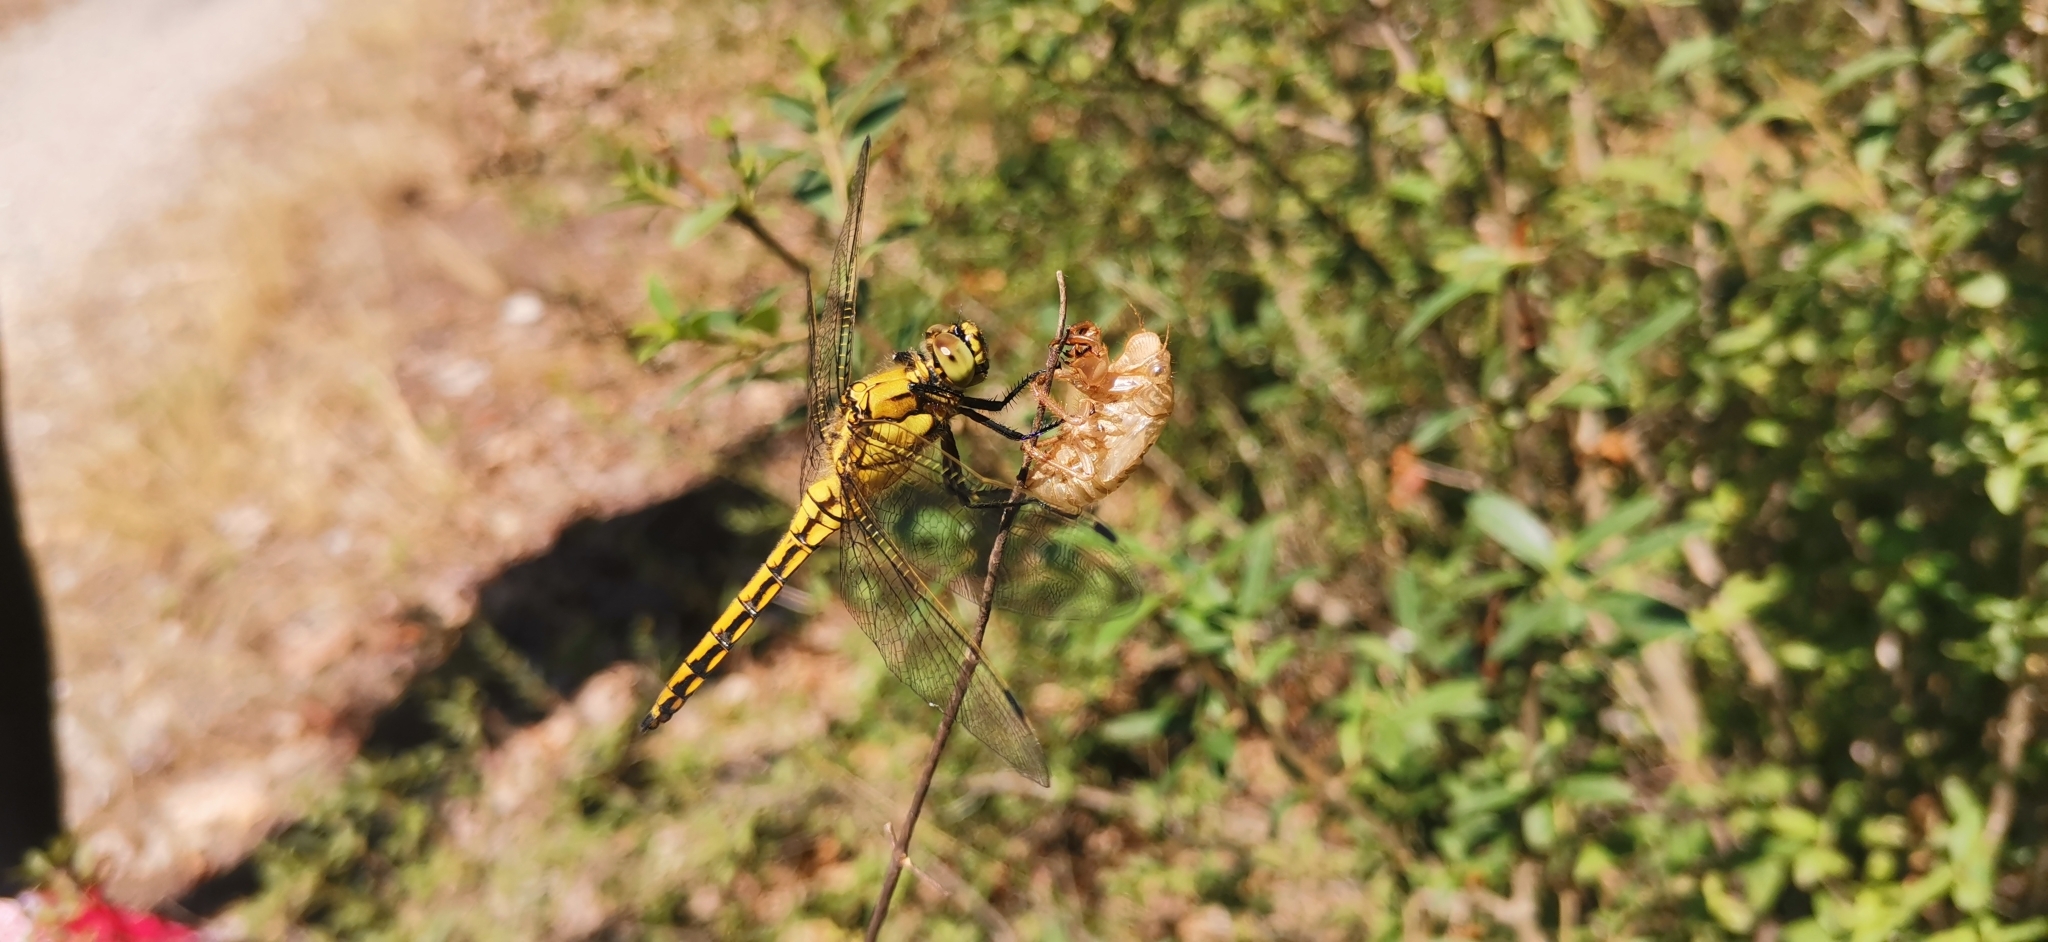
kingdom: Animalia
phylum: Arthropoda
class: Insecta
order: Odonata
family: Libellulidae
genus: Orthetrum
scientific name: Orthetrum cancellatum
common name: Black-tailed skimmer
